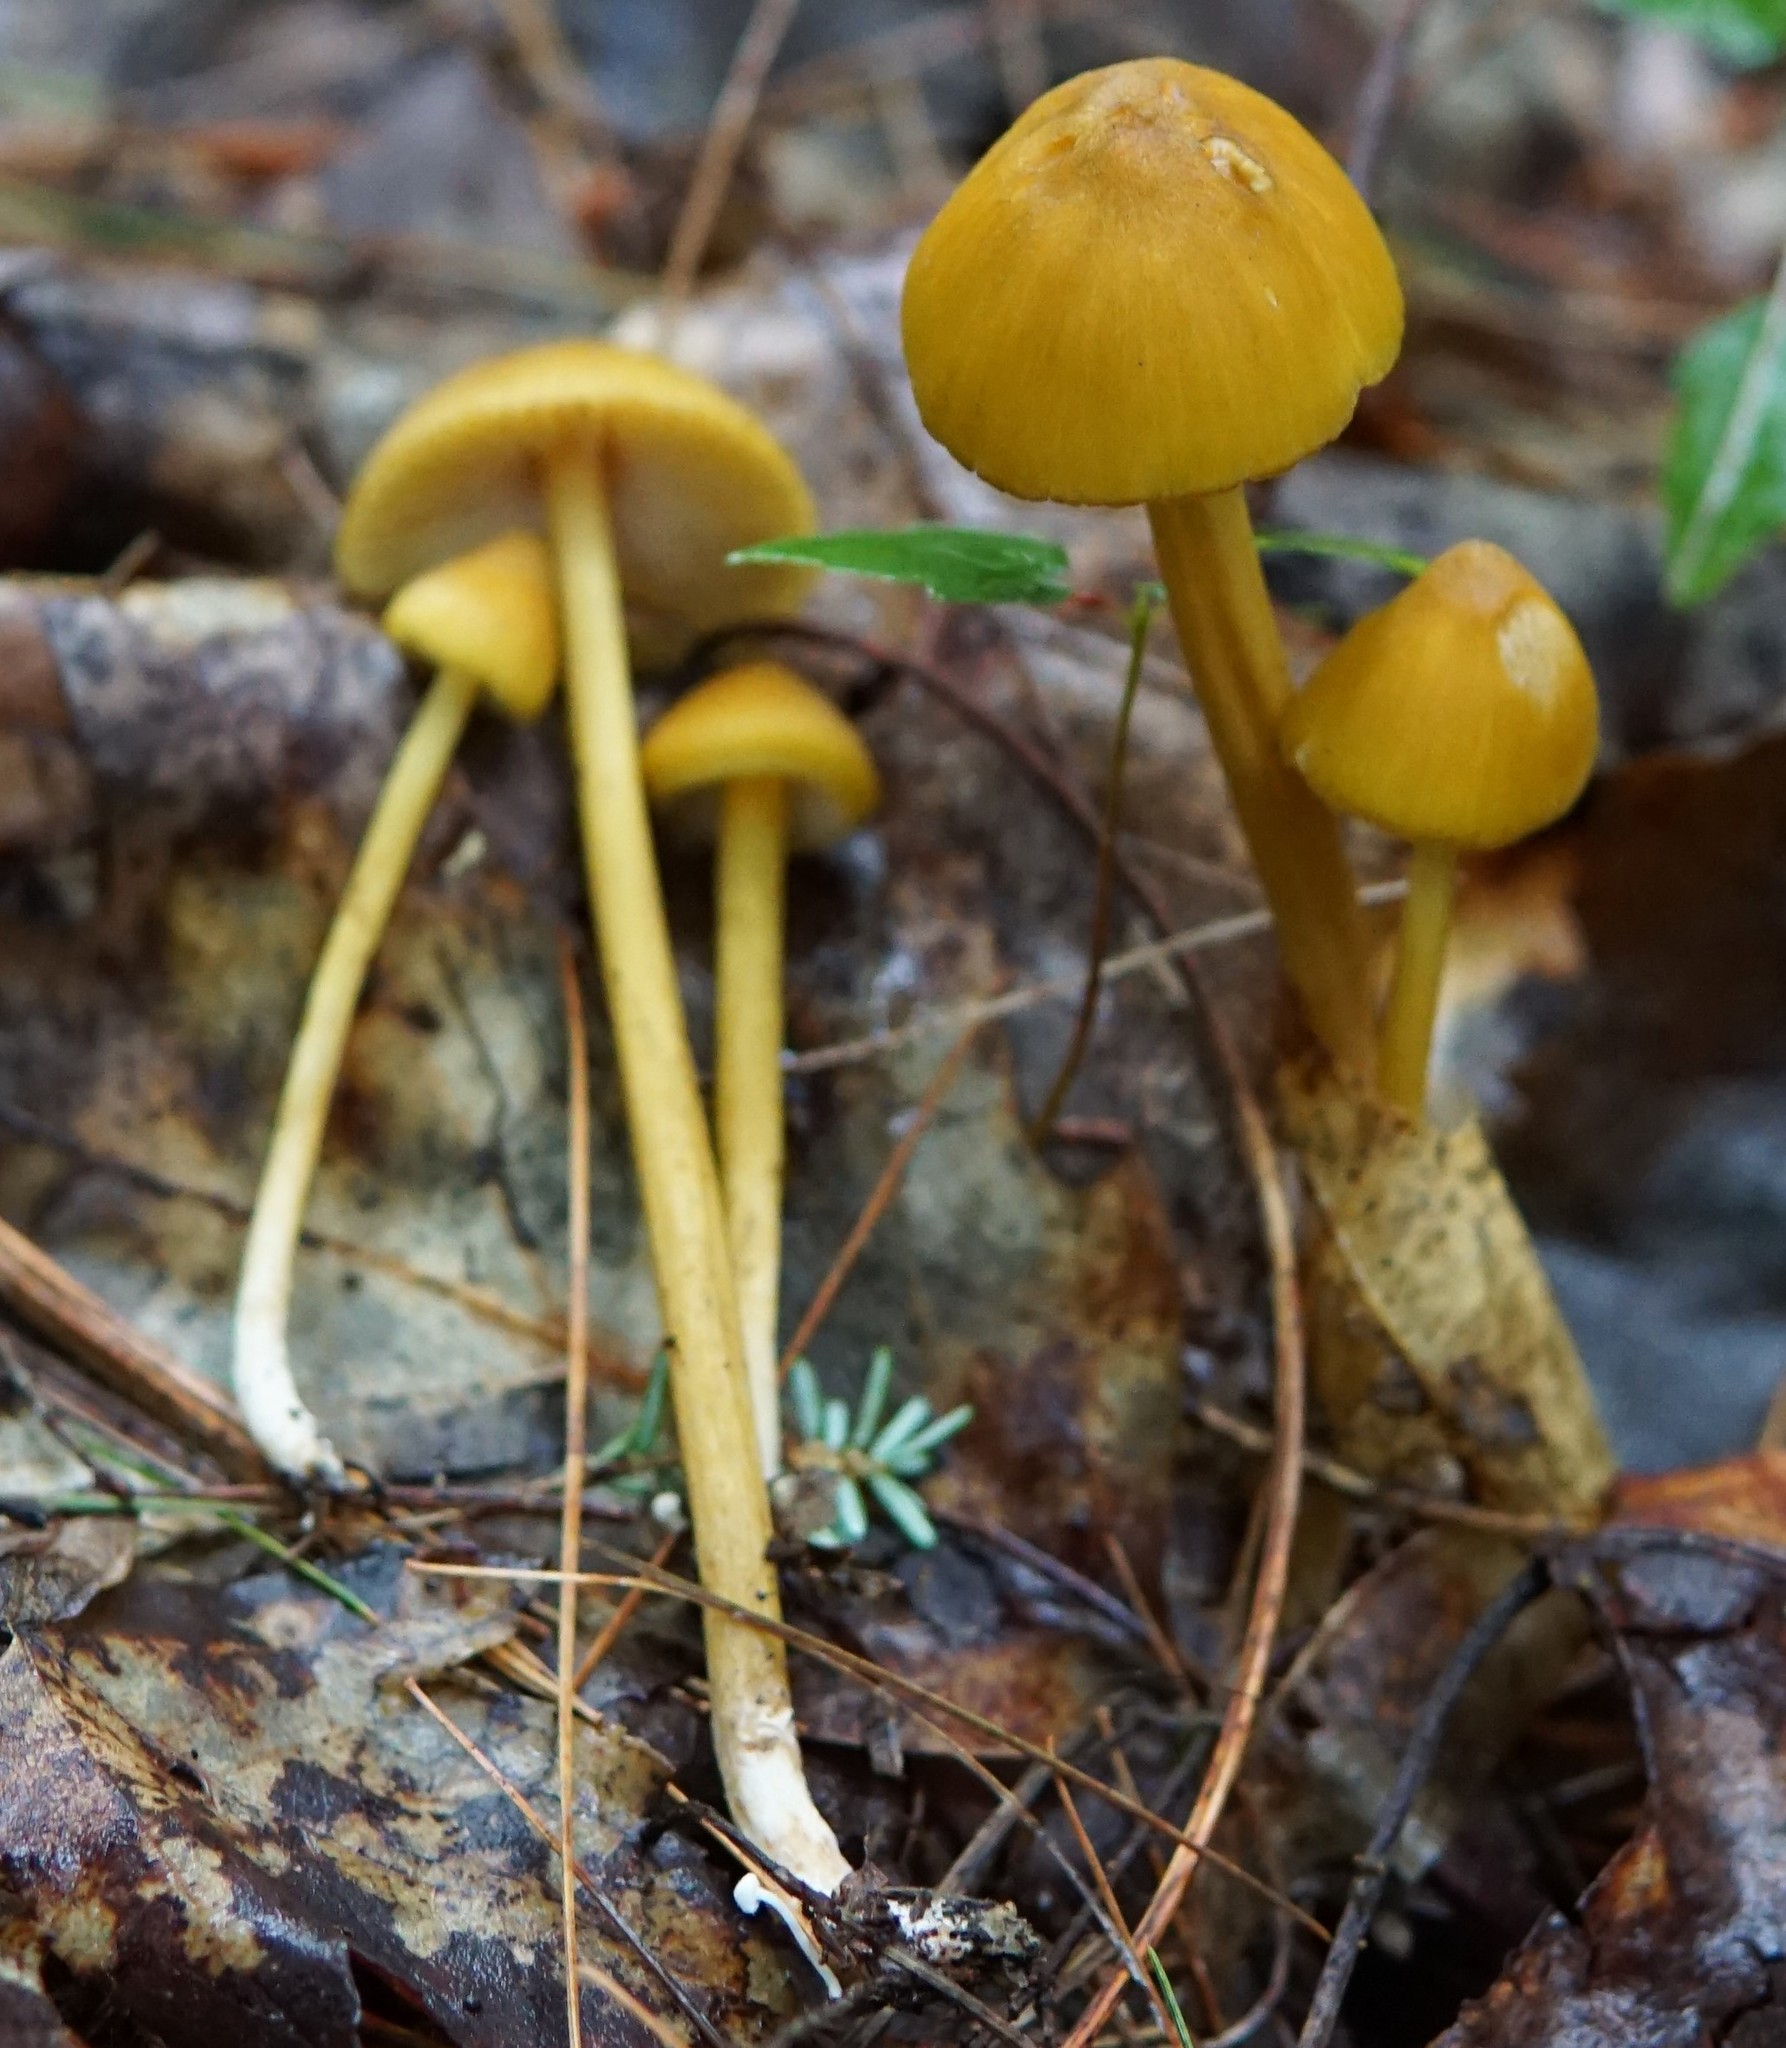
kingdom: Fungi
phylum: Basidiomycota
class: Agaricomycetes
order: Agaricales
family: Entolomataceae
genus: Entoloma
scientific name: Entoloma luteum
